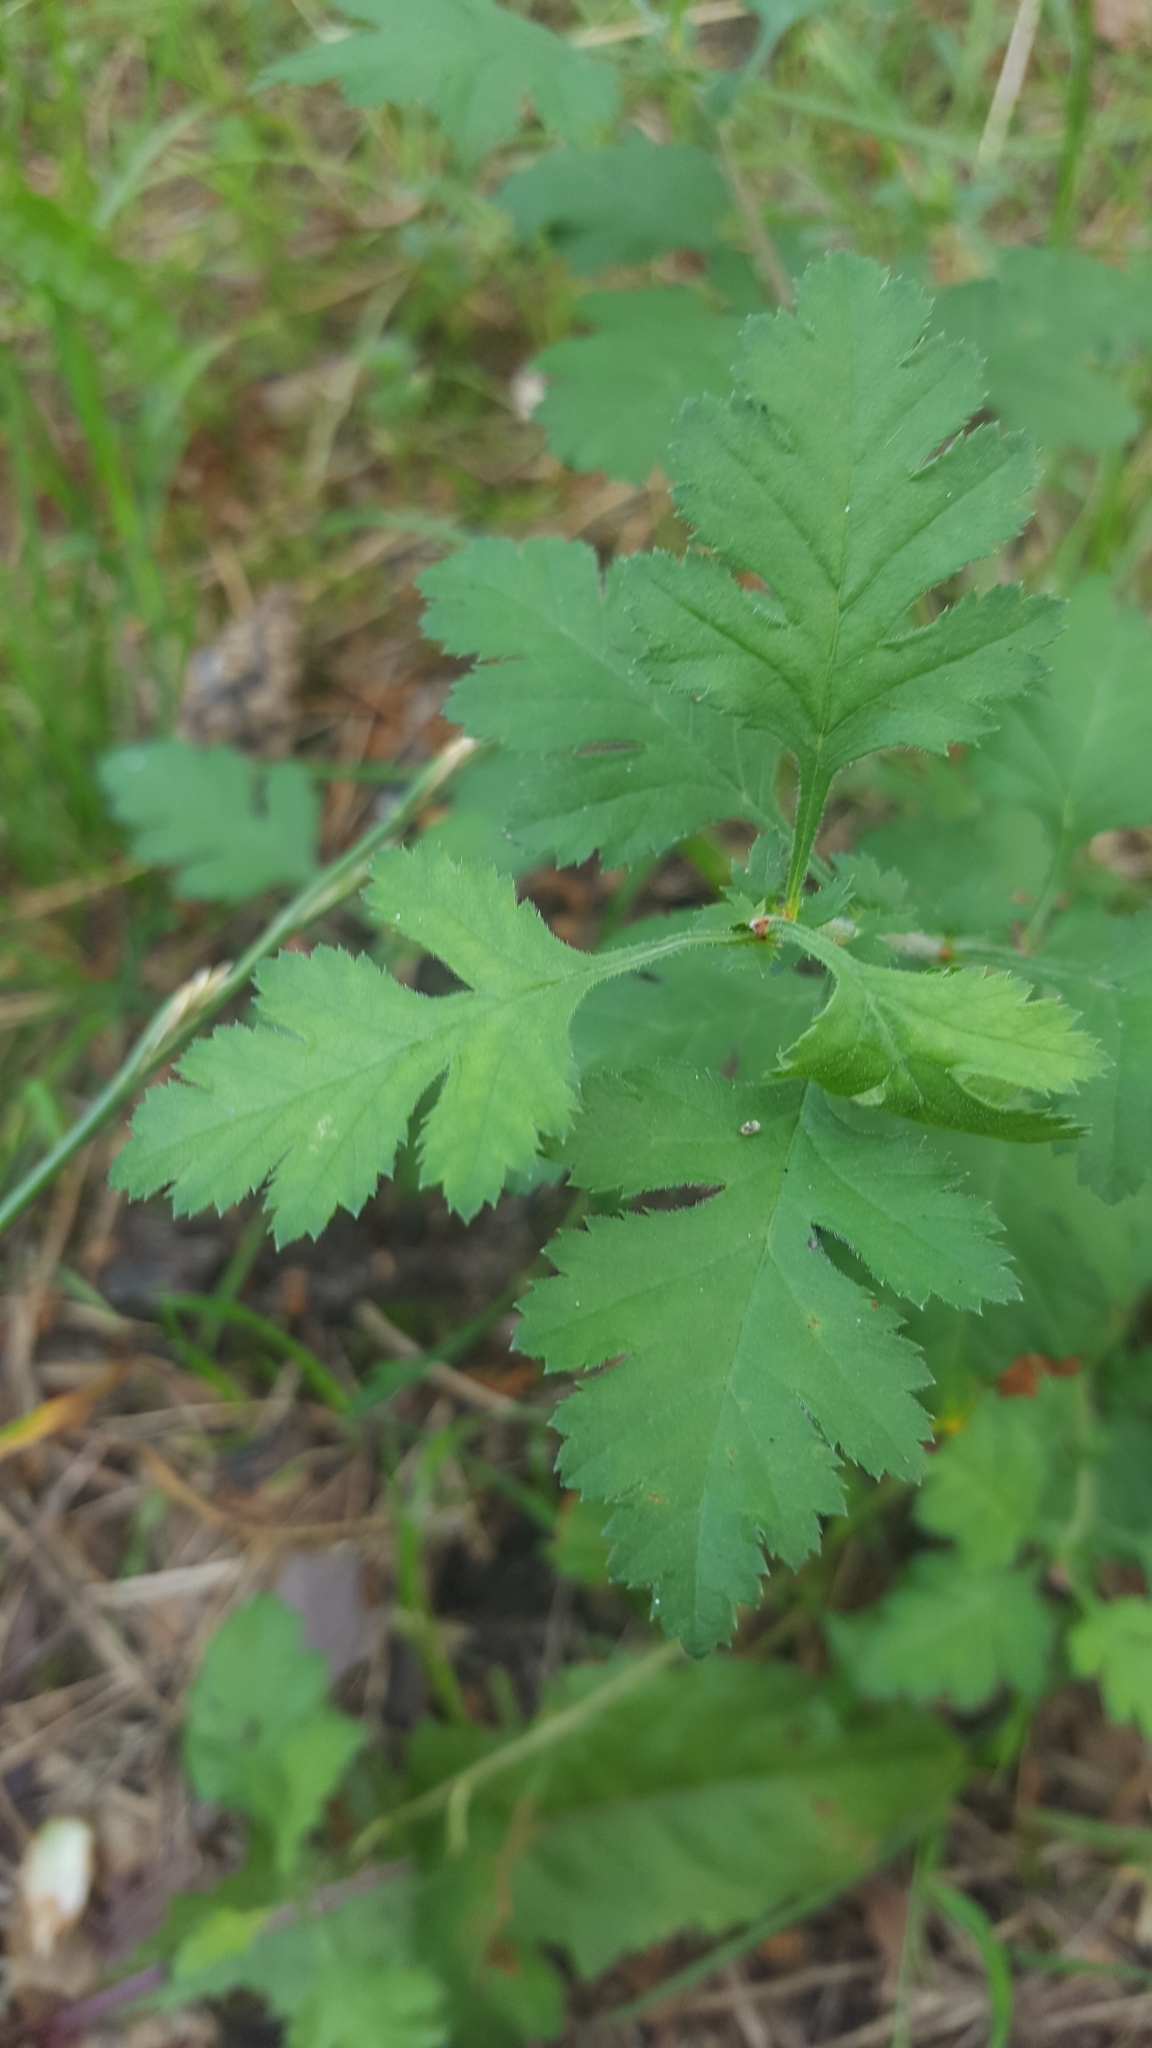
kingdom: Plantae
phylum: Tracheophyta
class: Magnoliopsida
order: Rosales
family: Rosaceae
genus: Crataegus
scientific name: Crataegus monogyna
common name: Hawthorn
